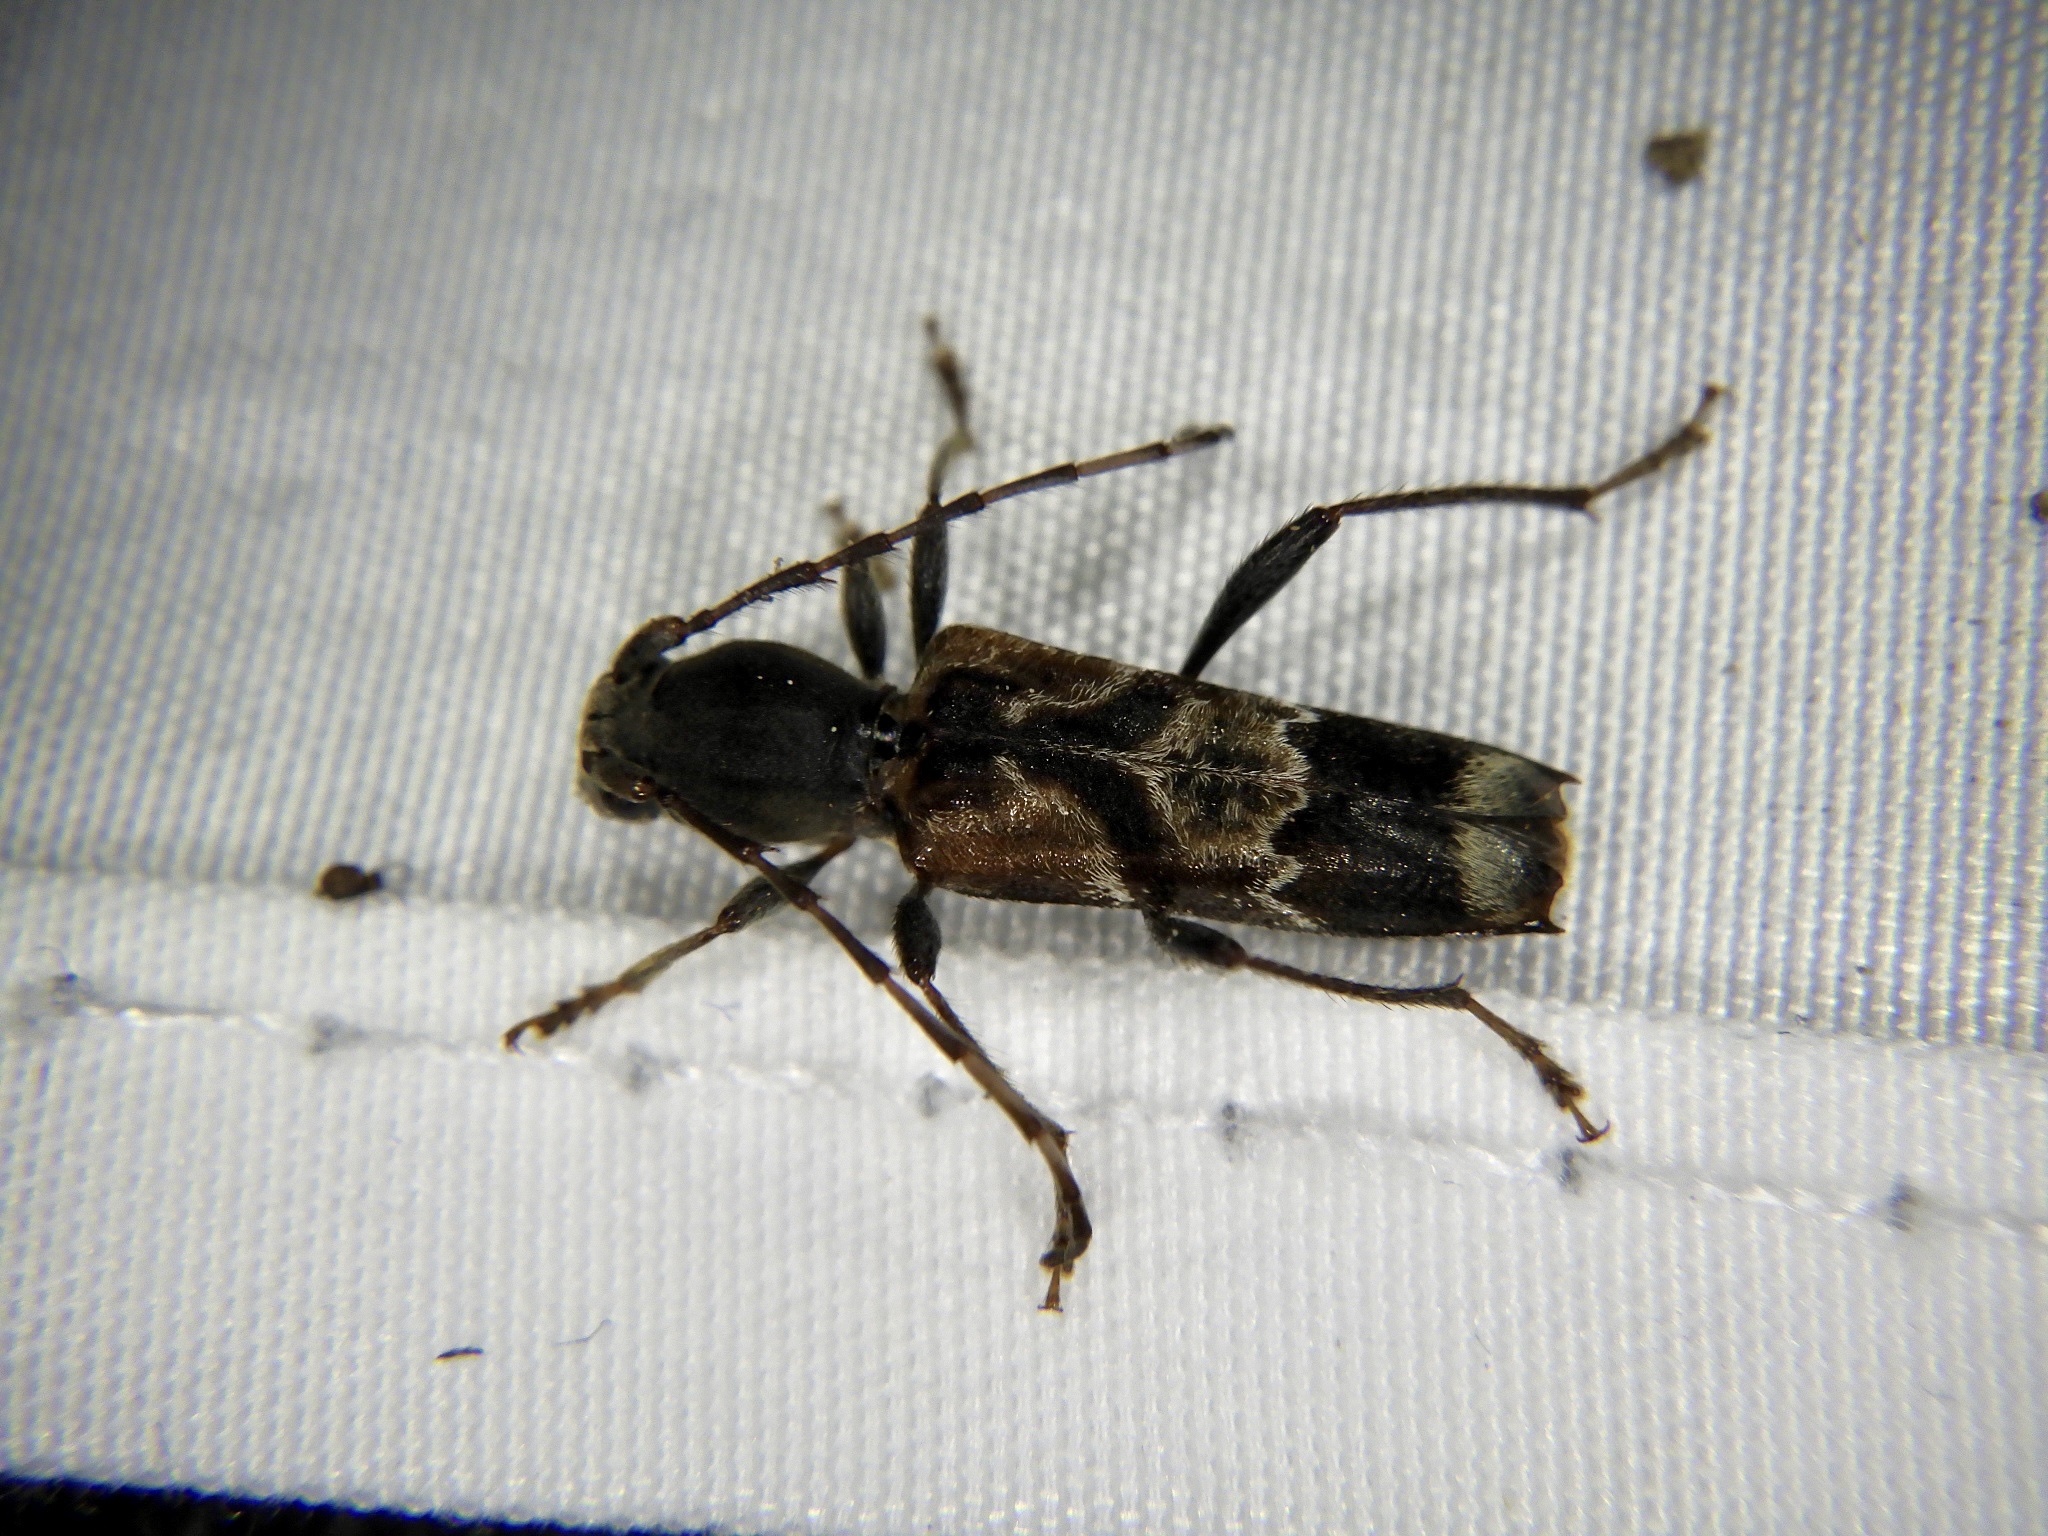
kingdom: Animalia
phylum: Arthropoda
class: Insecta
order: Coleoptera
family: Cerambycidae
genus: Anaglyptus
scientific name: Anaglyptus niponensis
